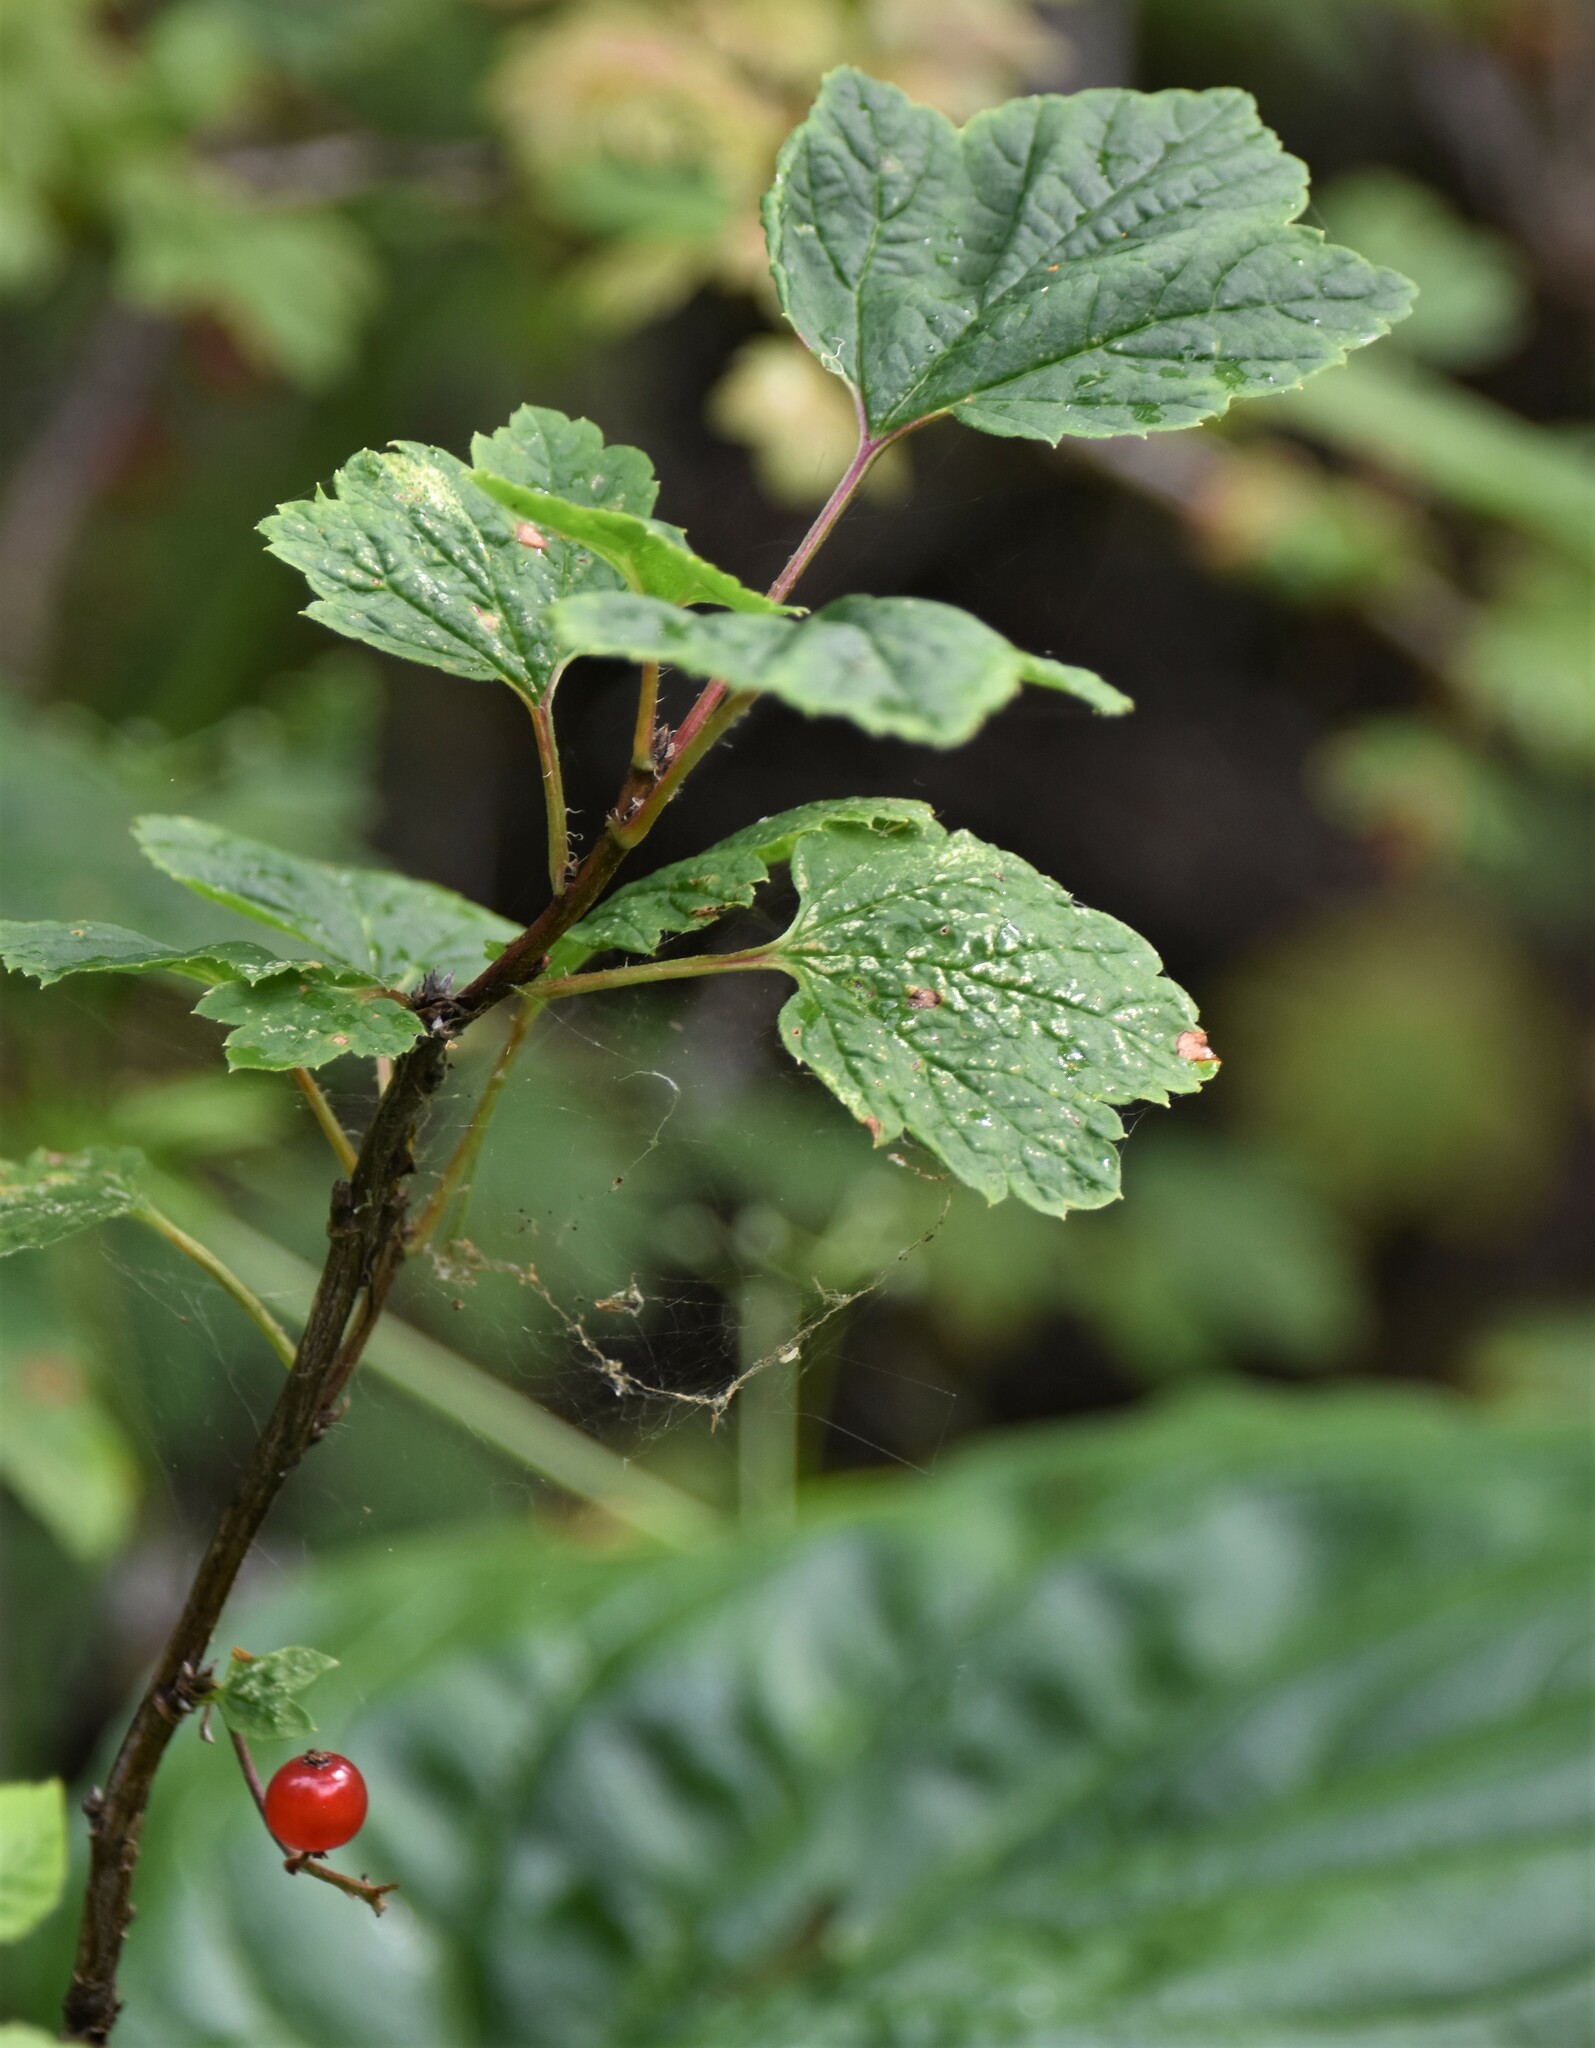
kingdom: Plantae
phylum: Tracheophyta
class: Magnoliopsida
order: Saxifragales
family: Grossulariaceae
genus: Ribes
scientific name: Ribes triste
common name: Swamp red currant
